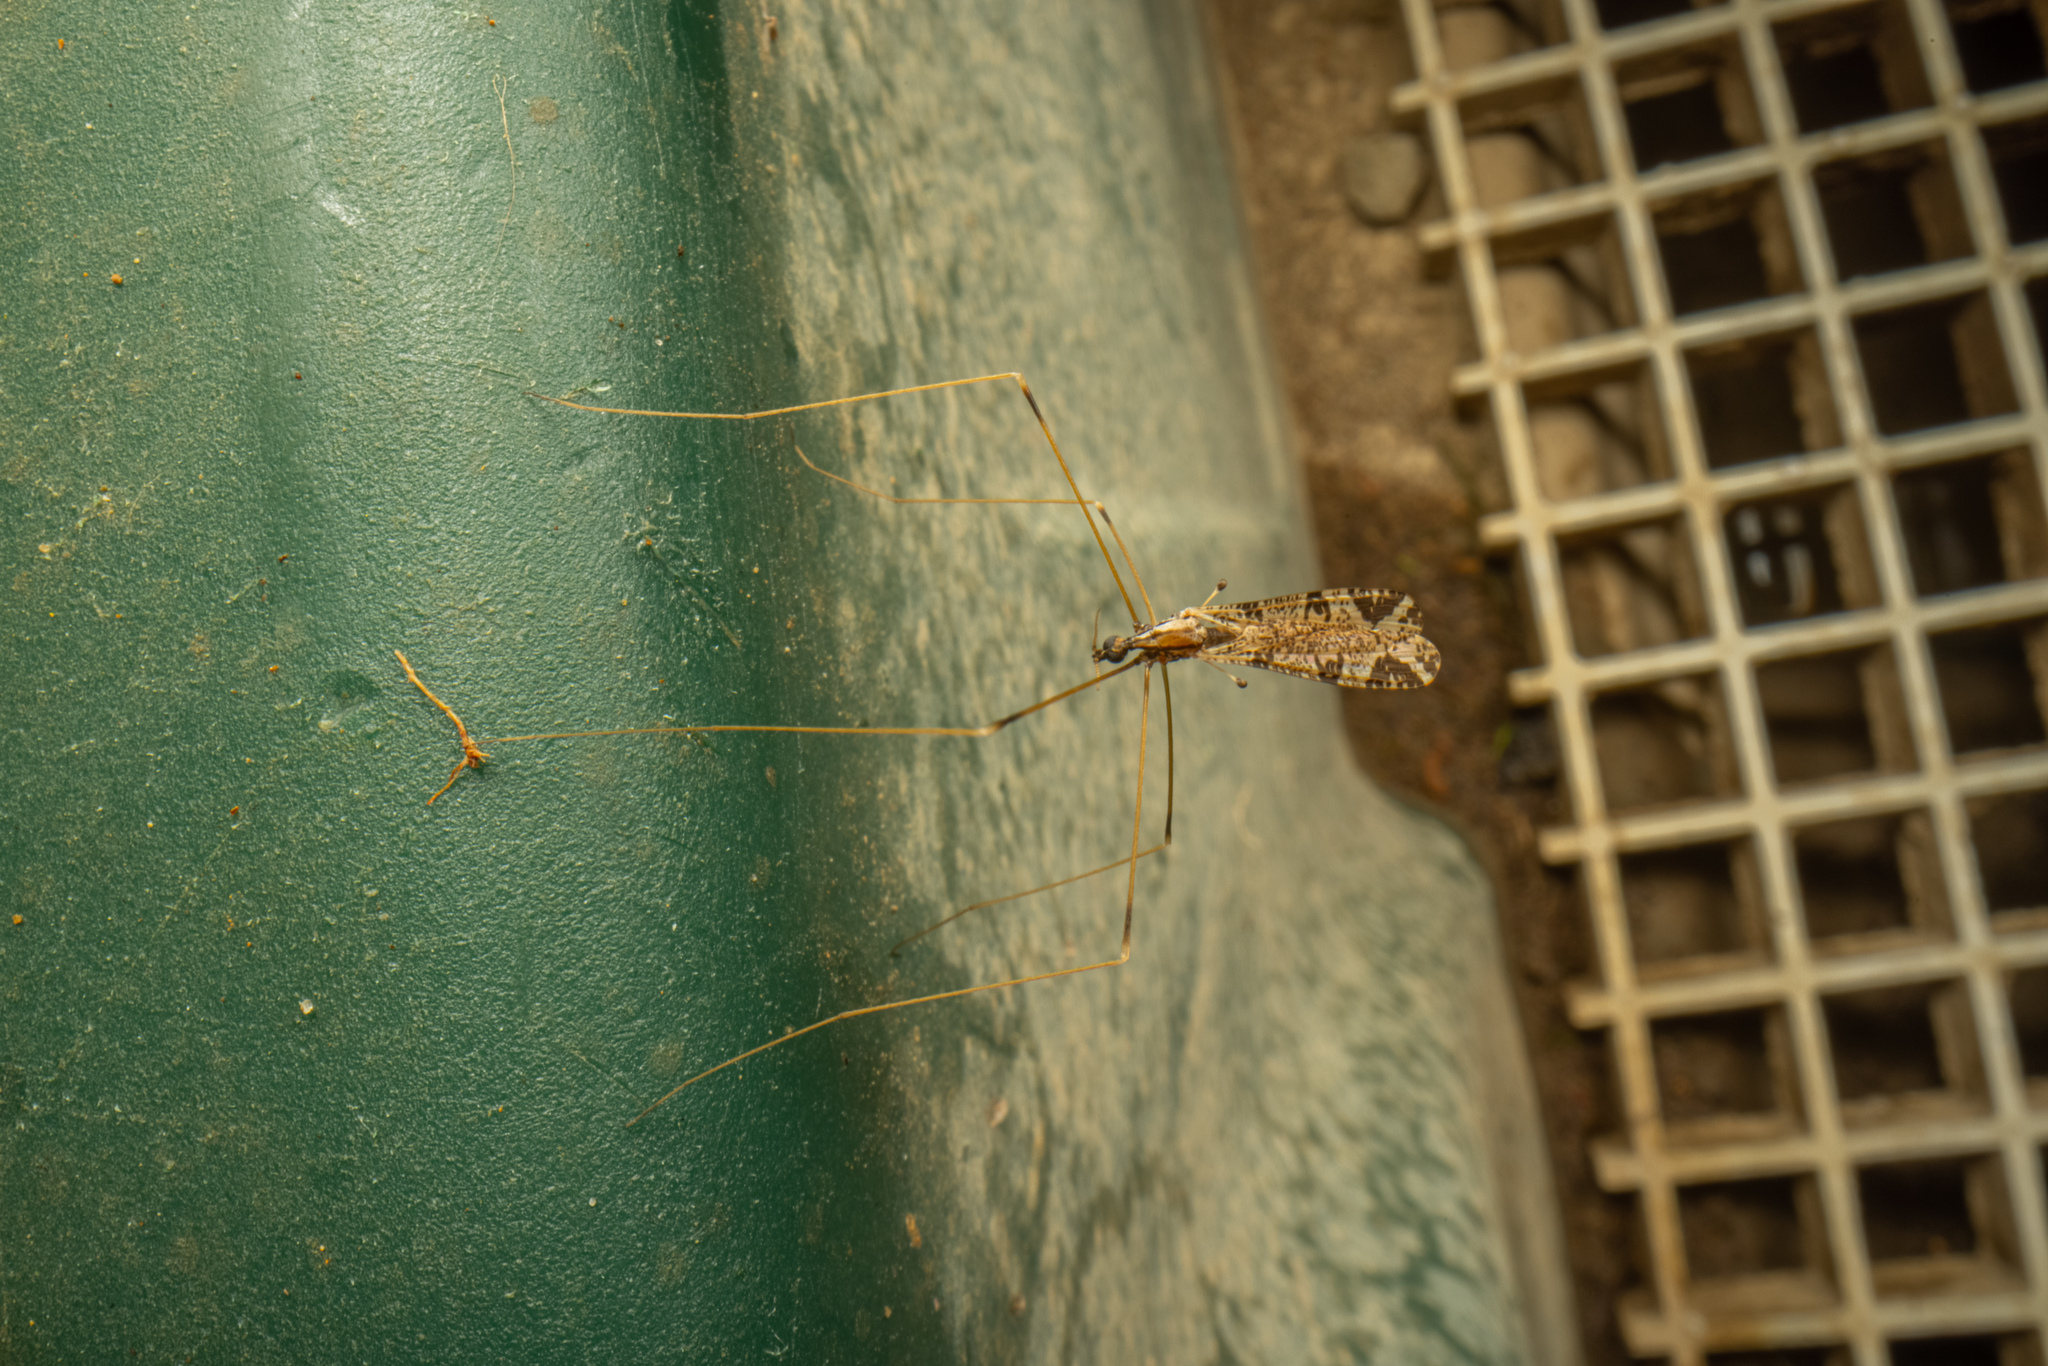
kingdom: Animalia
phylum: Arthropoda
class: Insecta
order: Diptera
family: Limoniidae
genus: Discobola
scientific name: Discobola striata
